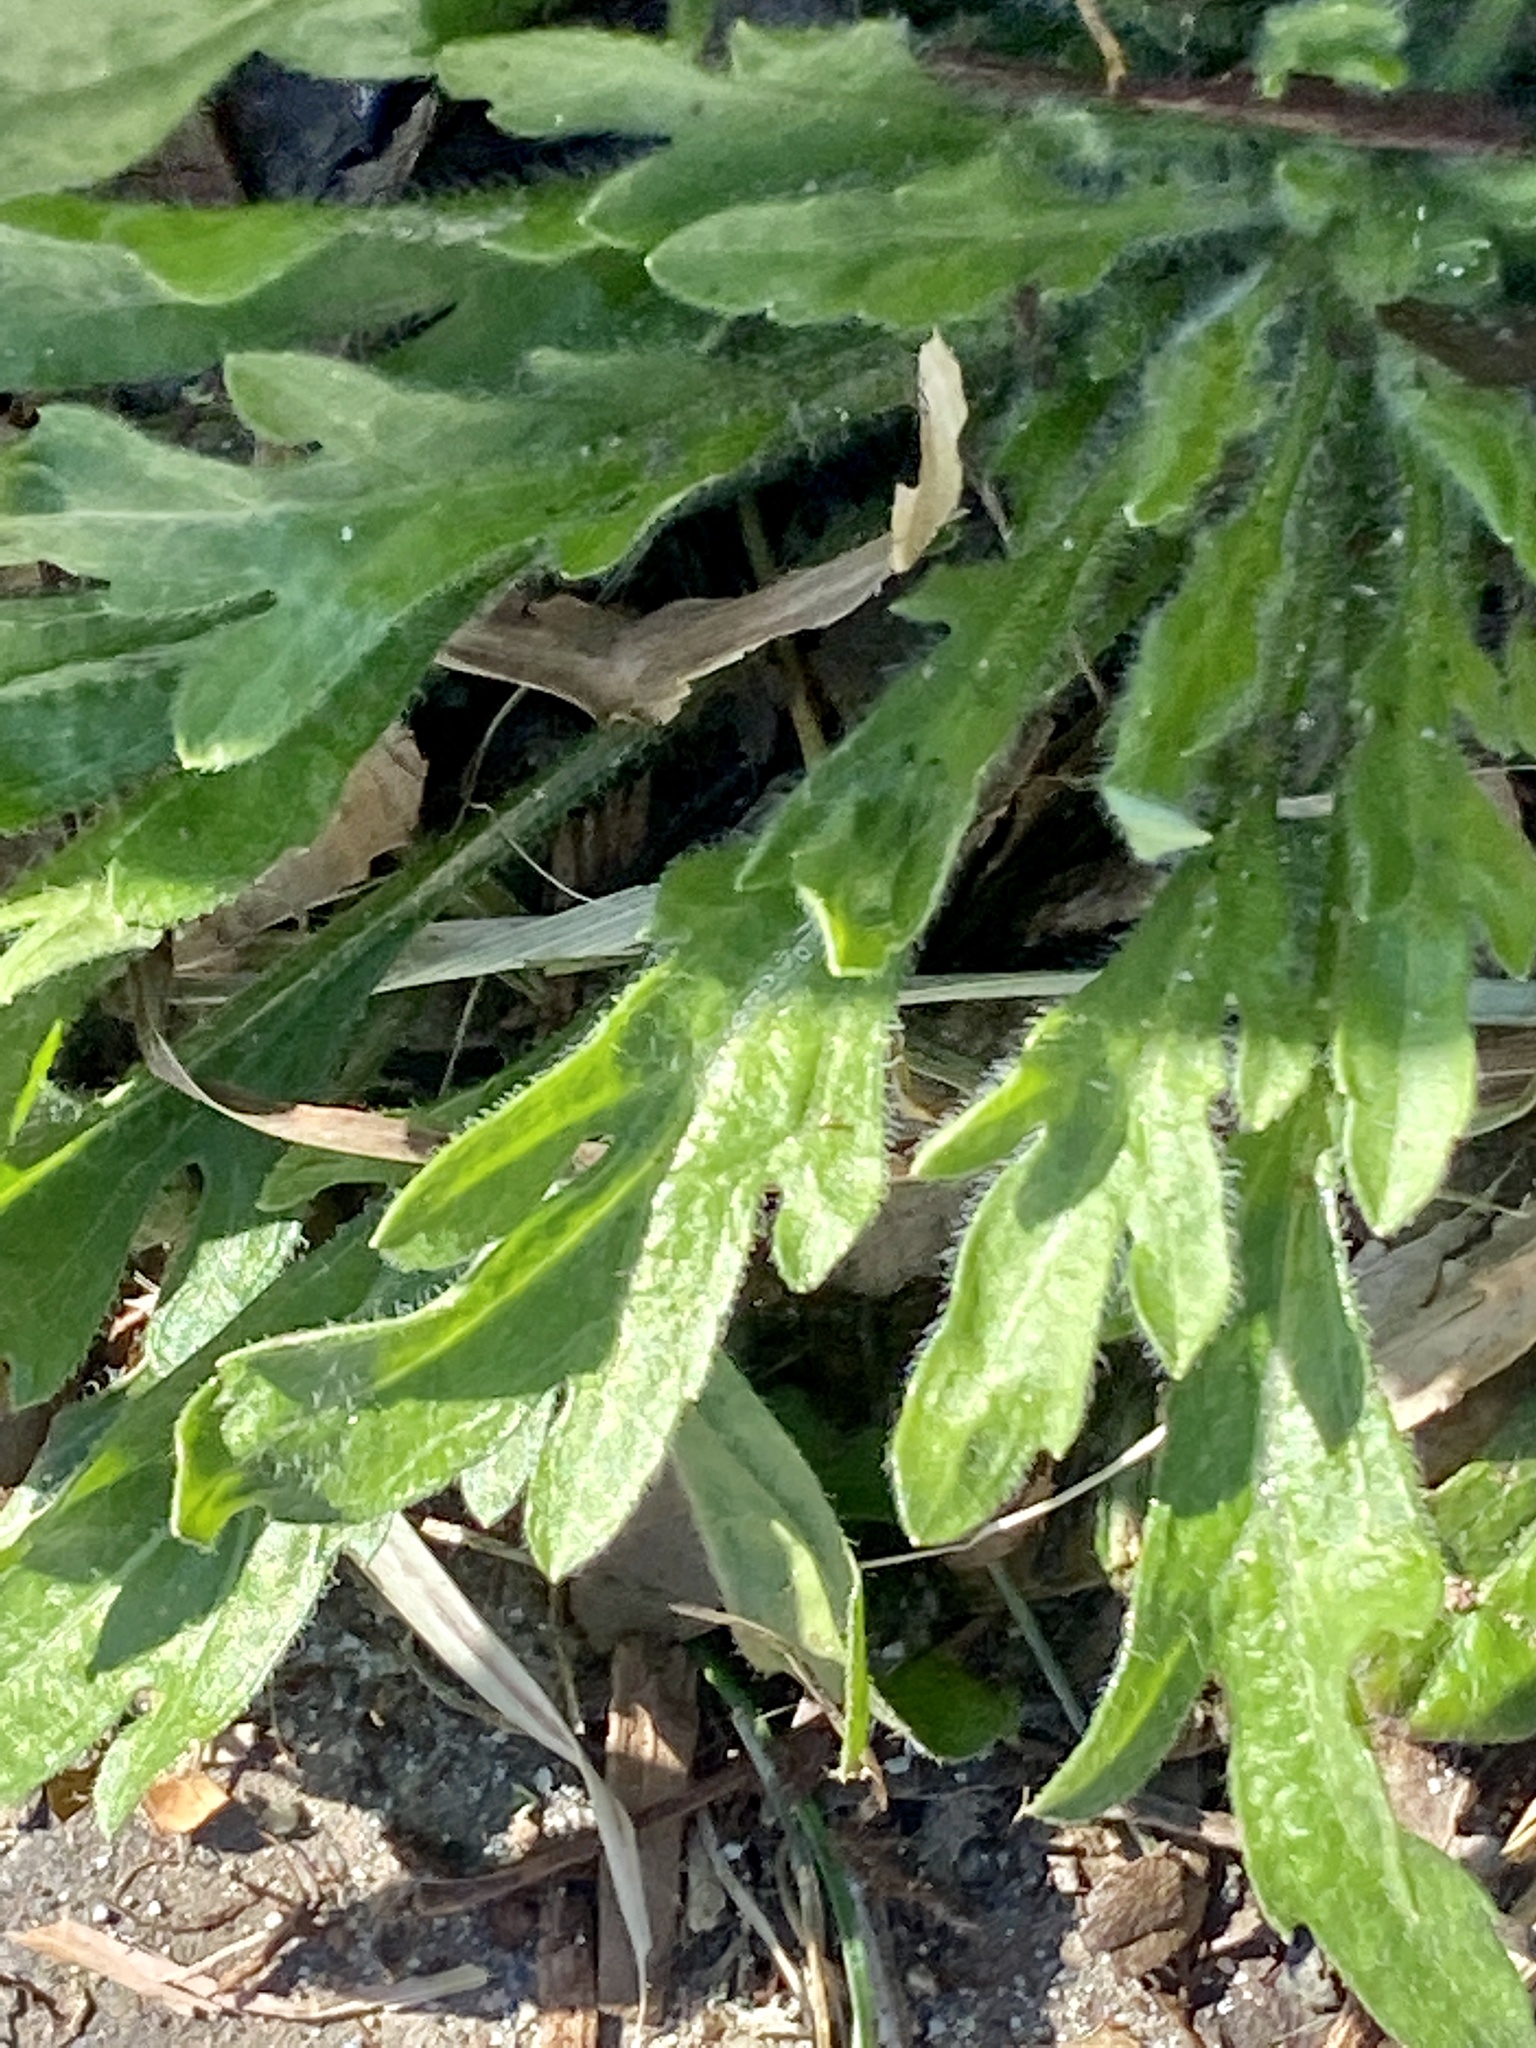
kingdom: Plantae
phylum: Tracheophyta
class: Magnoliopsida
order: Asterales
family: Asteraceae
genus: Erigeron
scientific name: Erigeron canadensis
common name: Canadian fleabane
